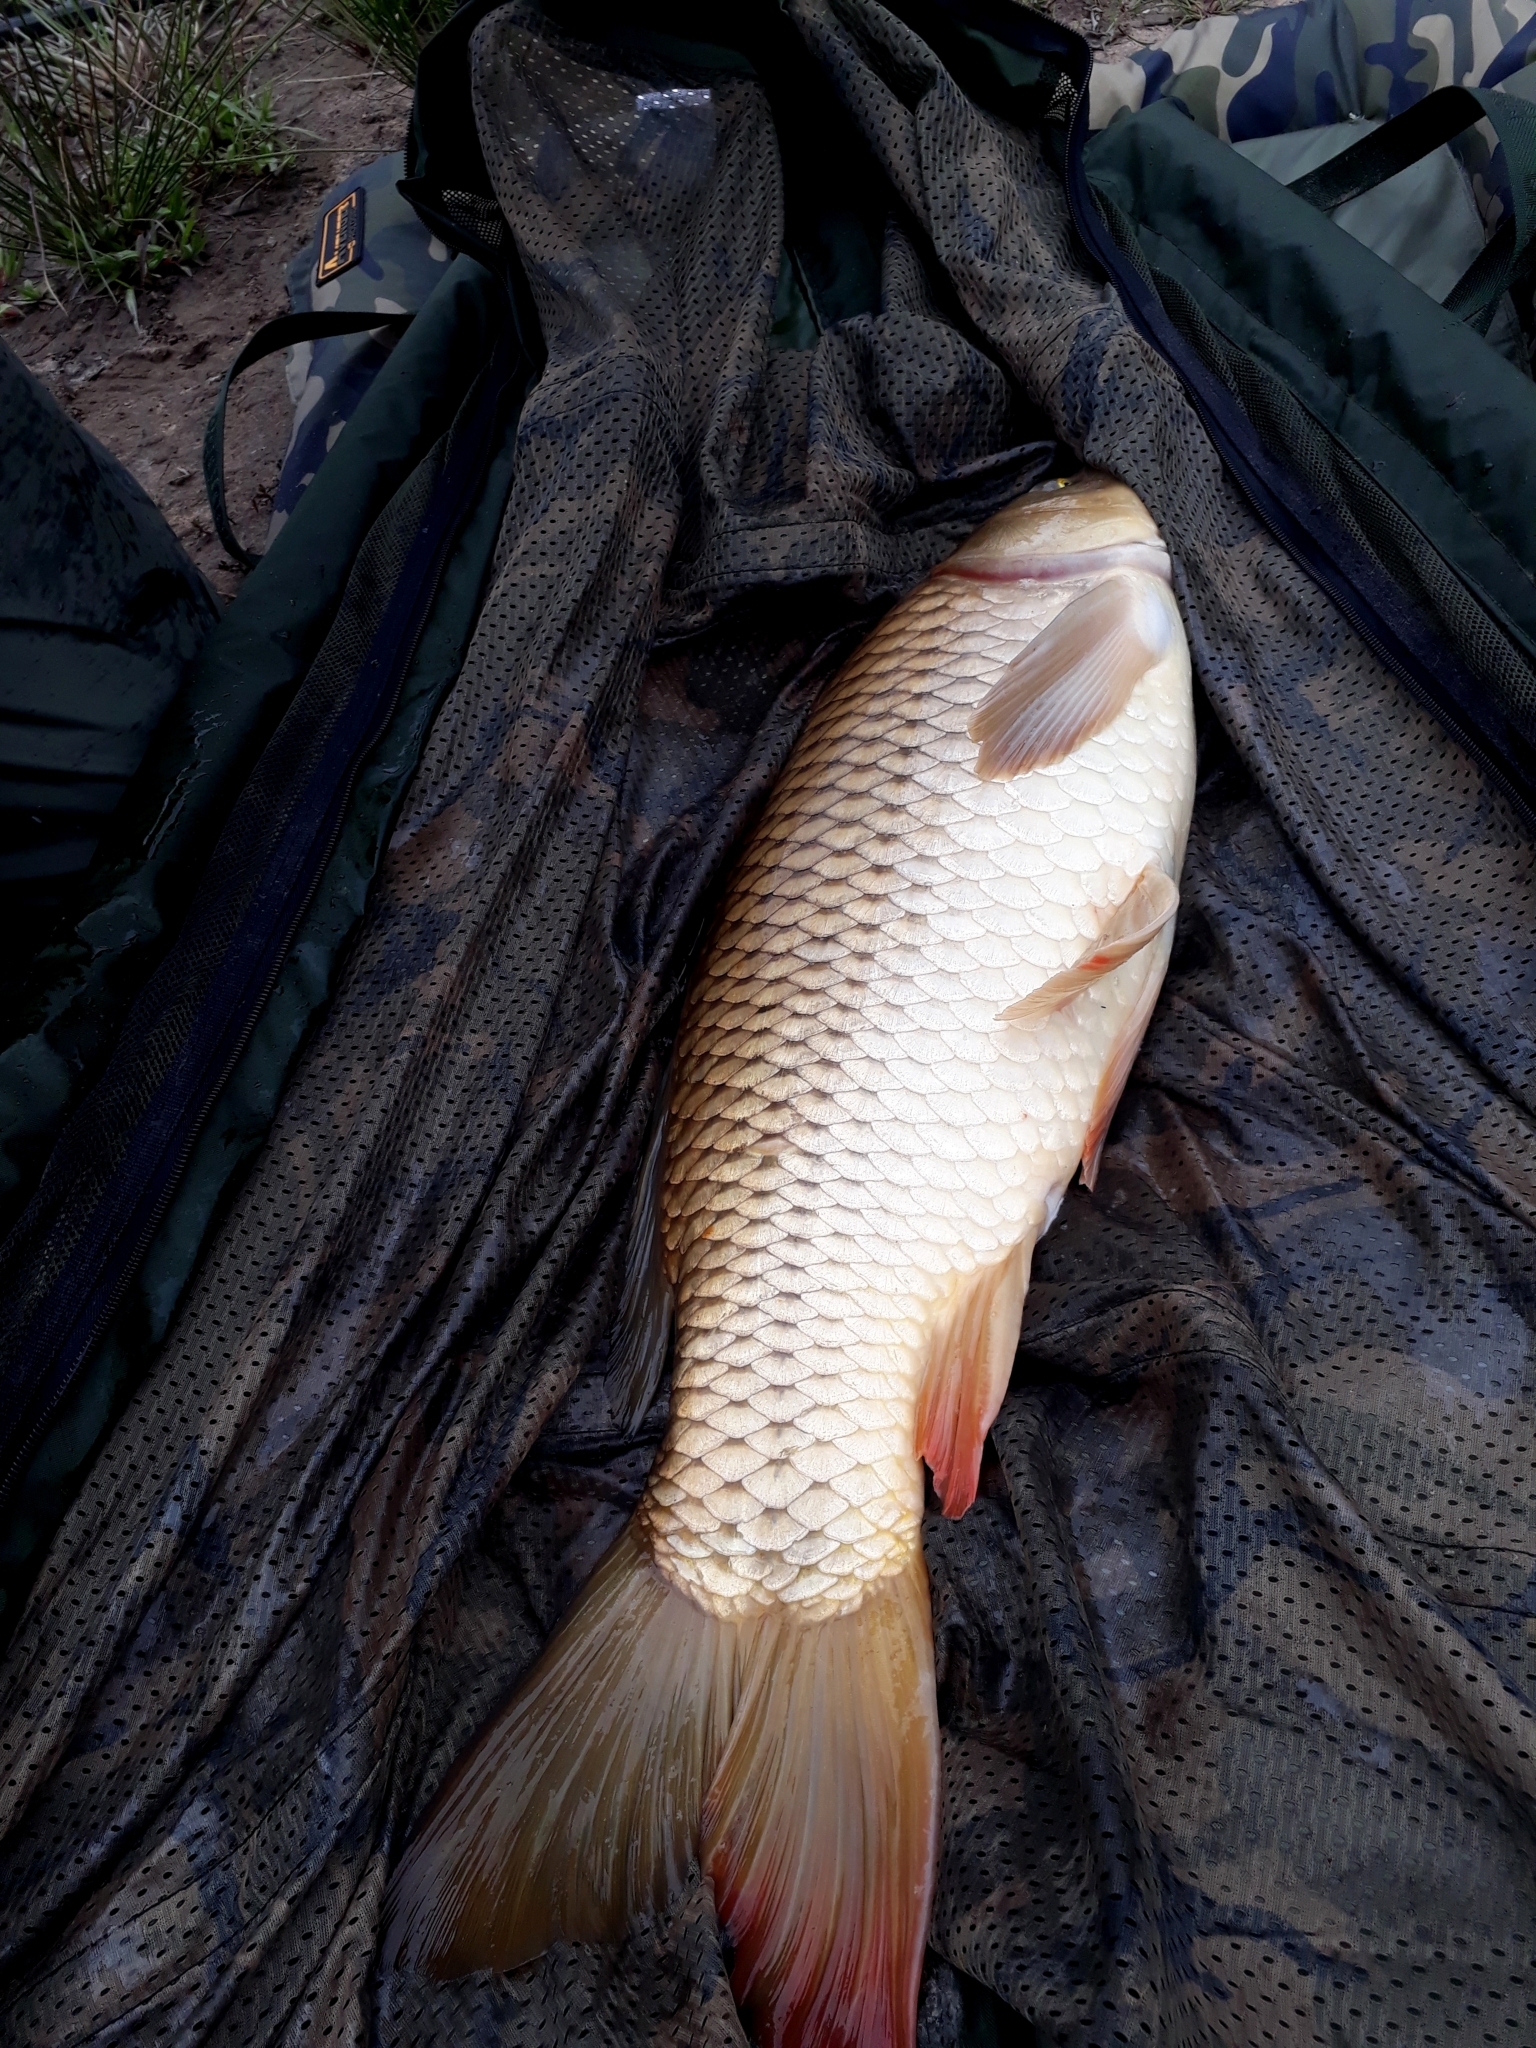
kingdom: Animalia
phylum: Chordata
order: Cypriniformes
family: Cyprinidae
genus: Cyprinus
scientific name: Cyprinus carpio
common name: Common carp
